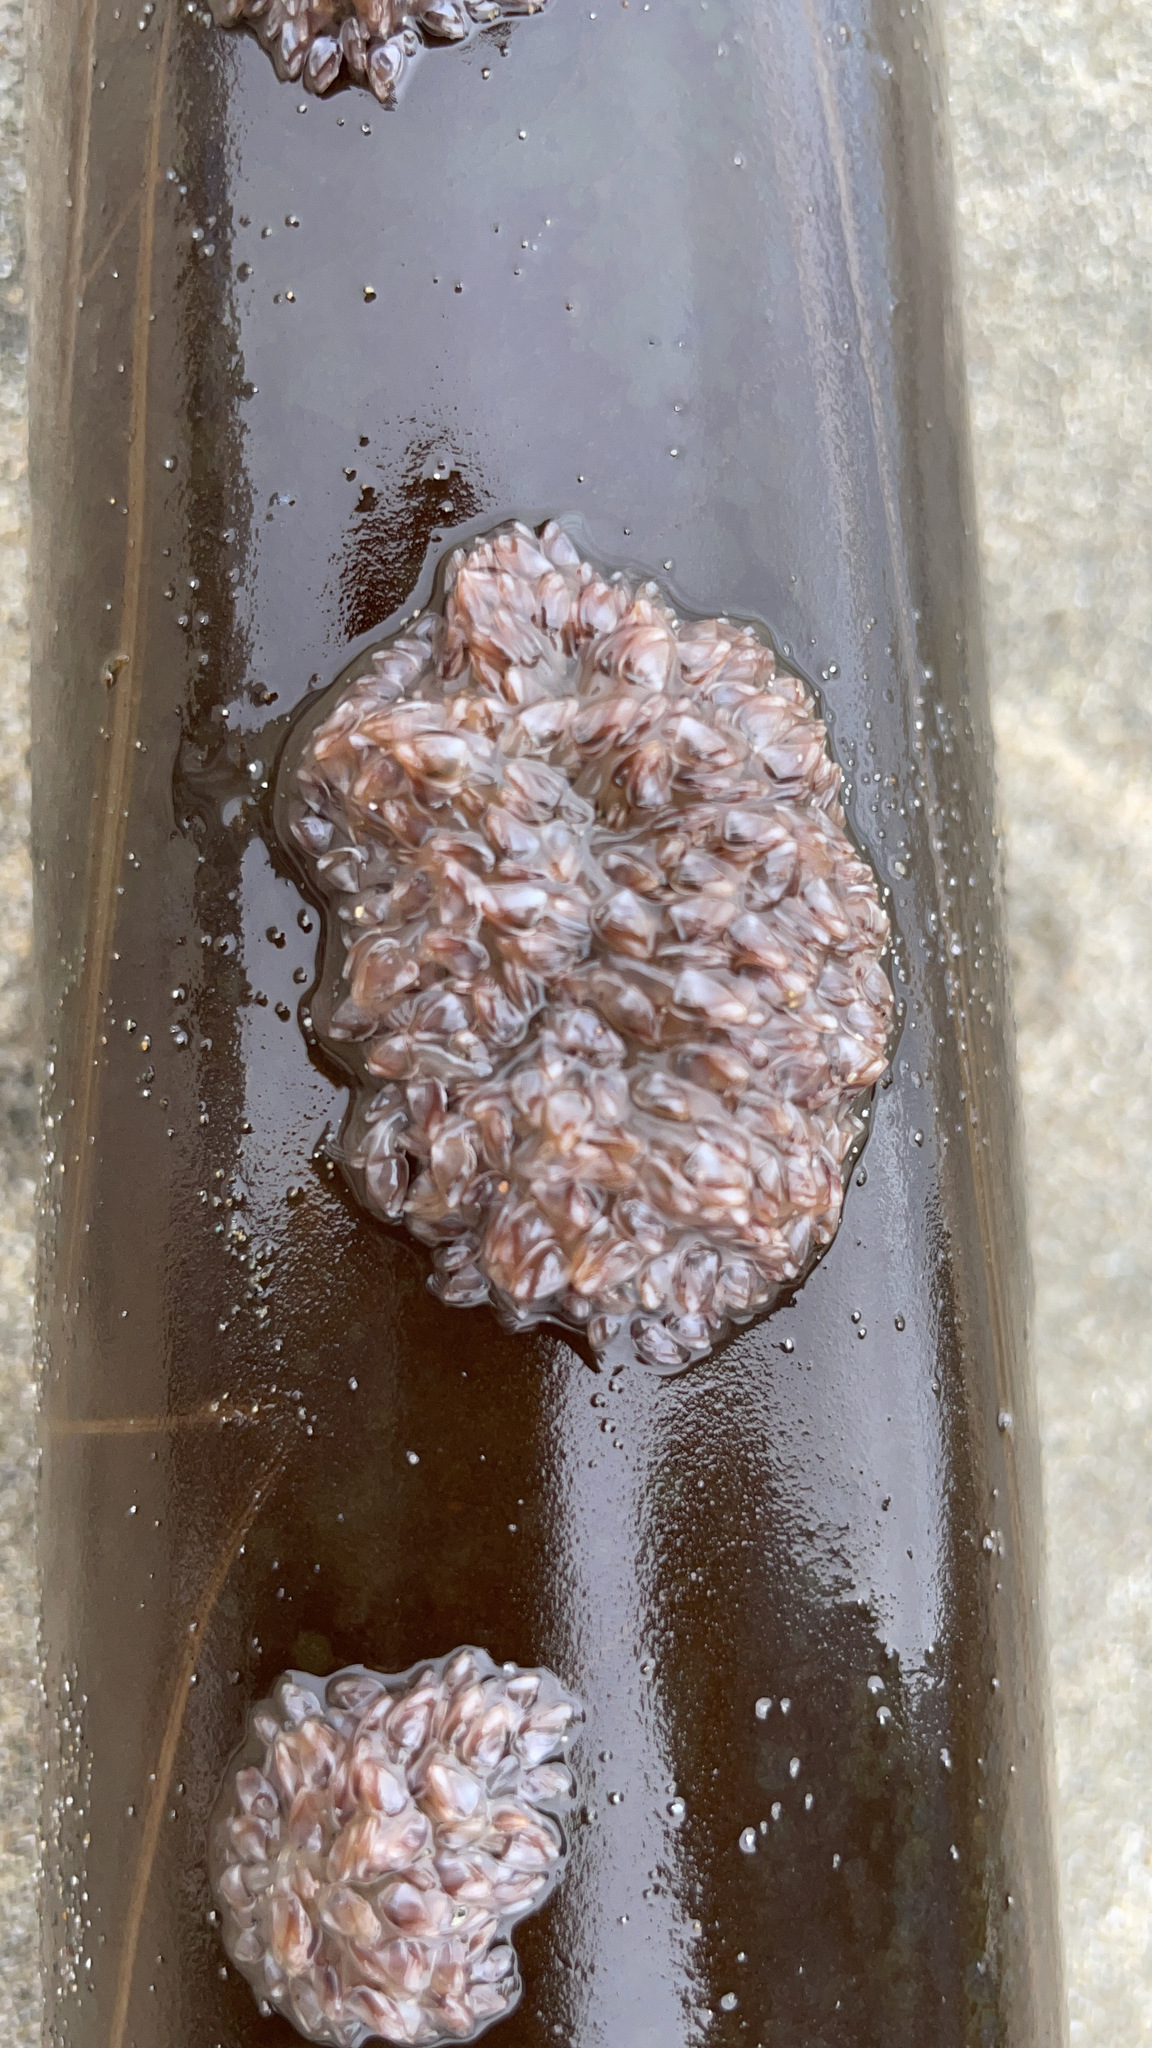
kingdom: Animalia
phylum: Arthropoda
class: Maxillopoda
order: Pedunculata
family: Lepadidae
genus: Lepas
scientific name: Lepas pacifica
